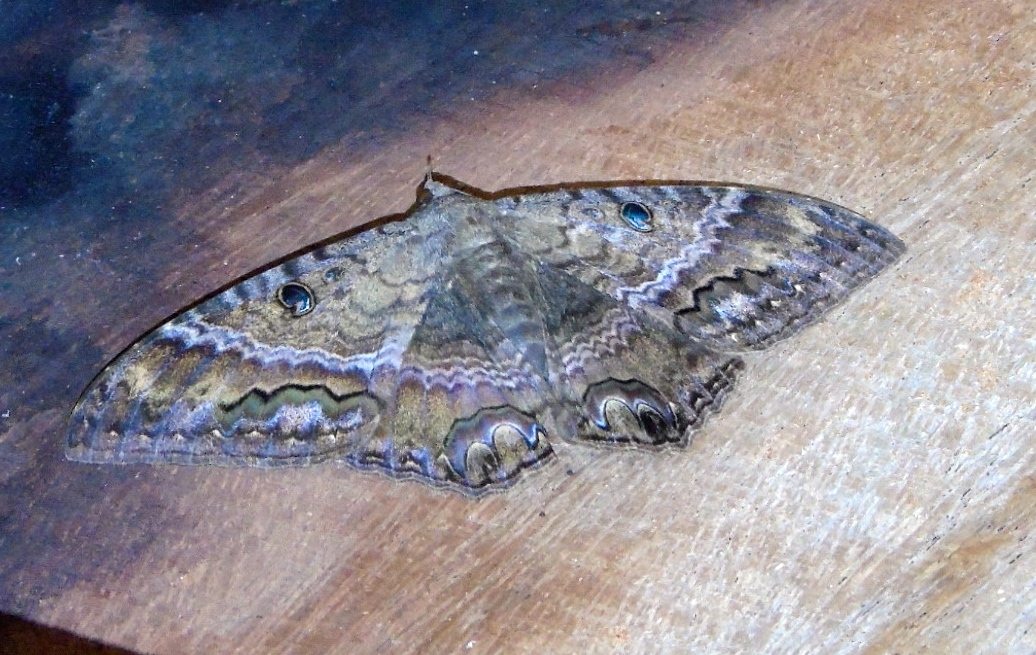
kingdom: Animalia
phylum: Arthropoda
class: Insecta
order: Lepidoptera
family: Erebidae
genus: Ascalapha
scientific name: Ascalapha odorata
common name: Black witch
